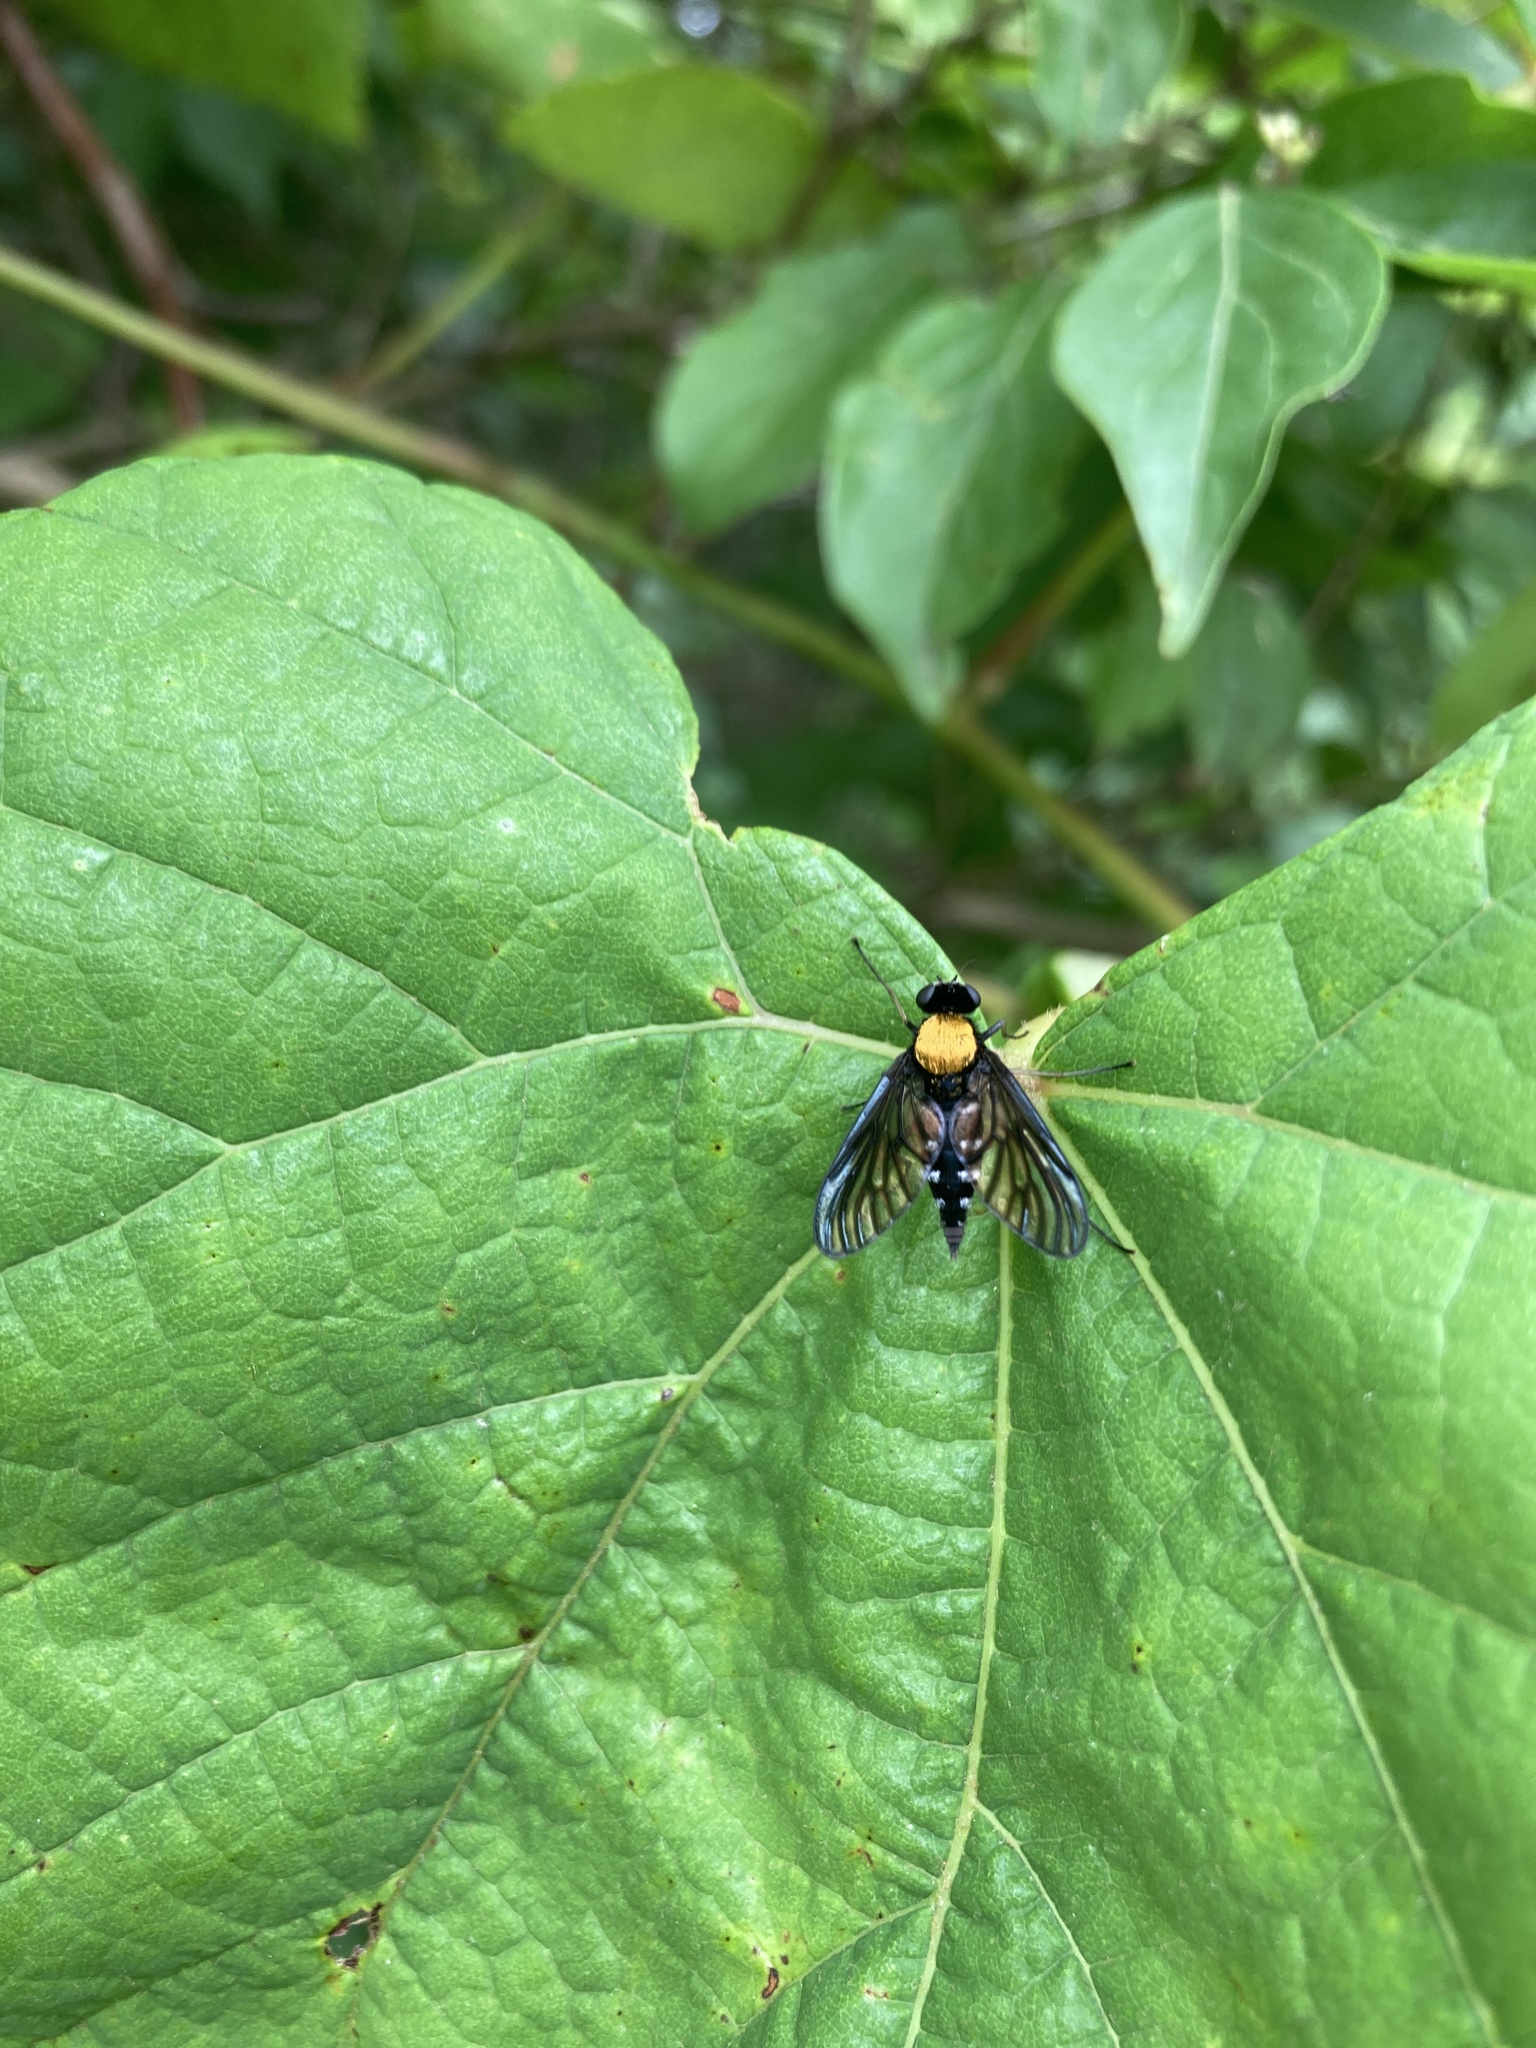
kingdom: Animalia
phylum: Arthropoda
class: Insecta
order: Diptera
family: Rhagionidae
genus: Chrysopilus
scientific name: Chrysopilus thoracicus
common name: Golden-backed snipe fly
